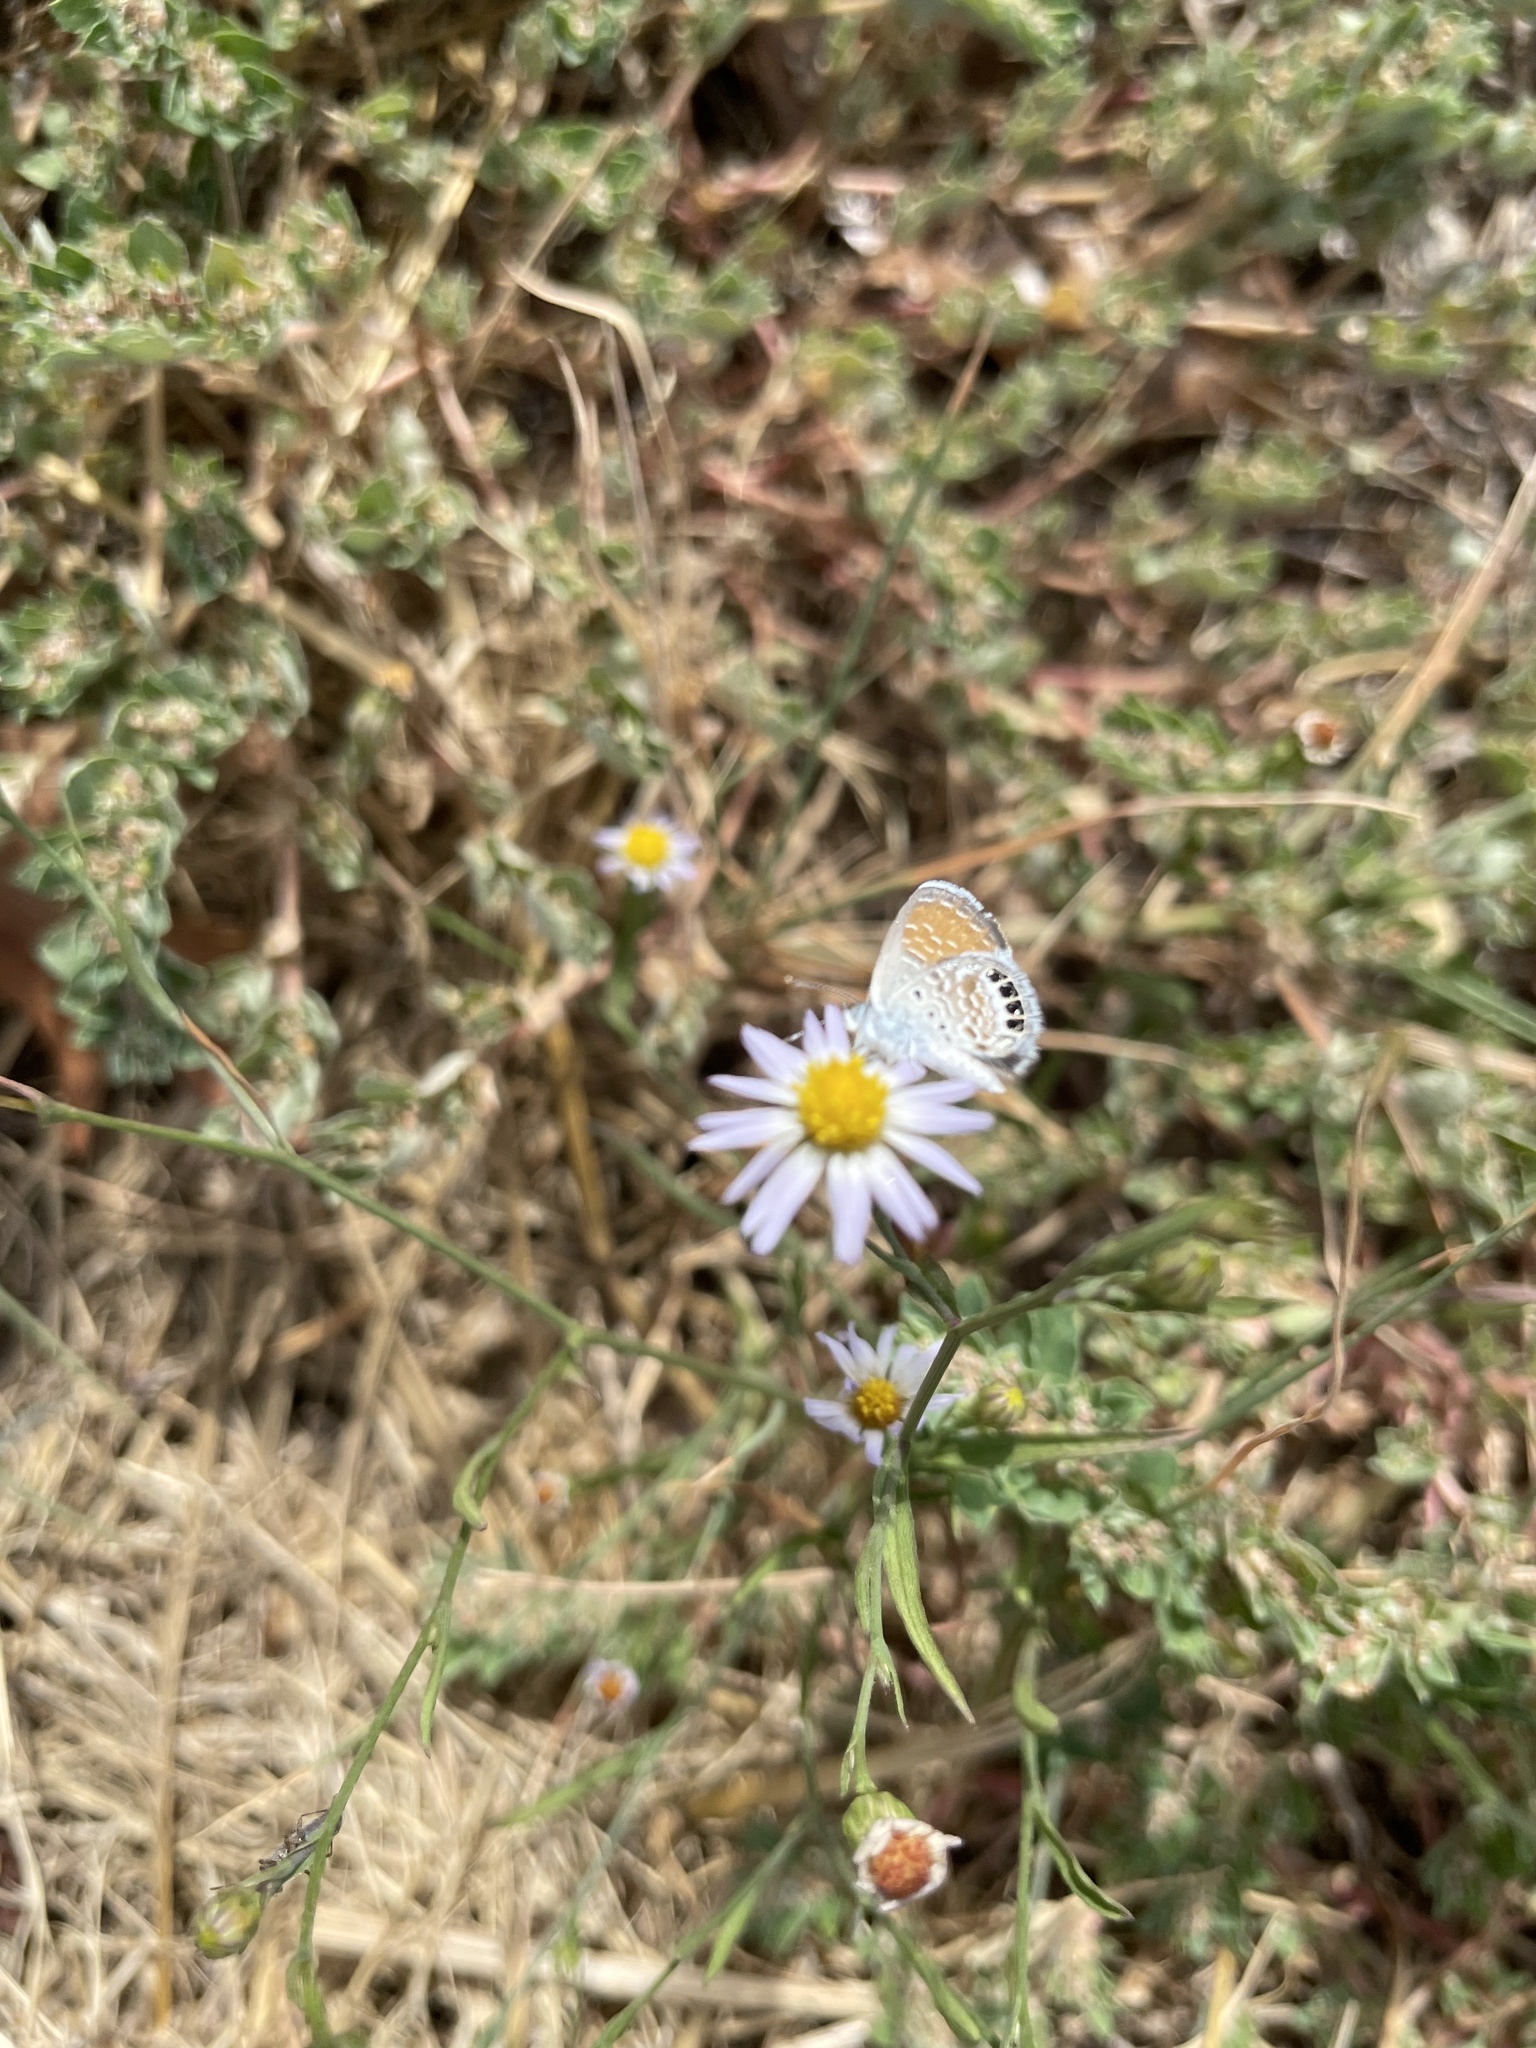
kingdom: Animalia
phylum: Arthropoda
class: Insecta
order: Lepidoptera
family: Lycaenidae
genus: Brephidium
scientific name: Brephidium exilis
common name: Pygmy blue
